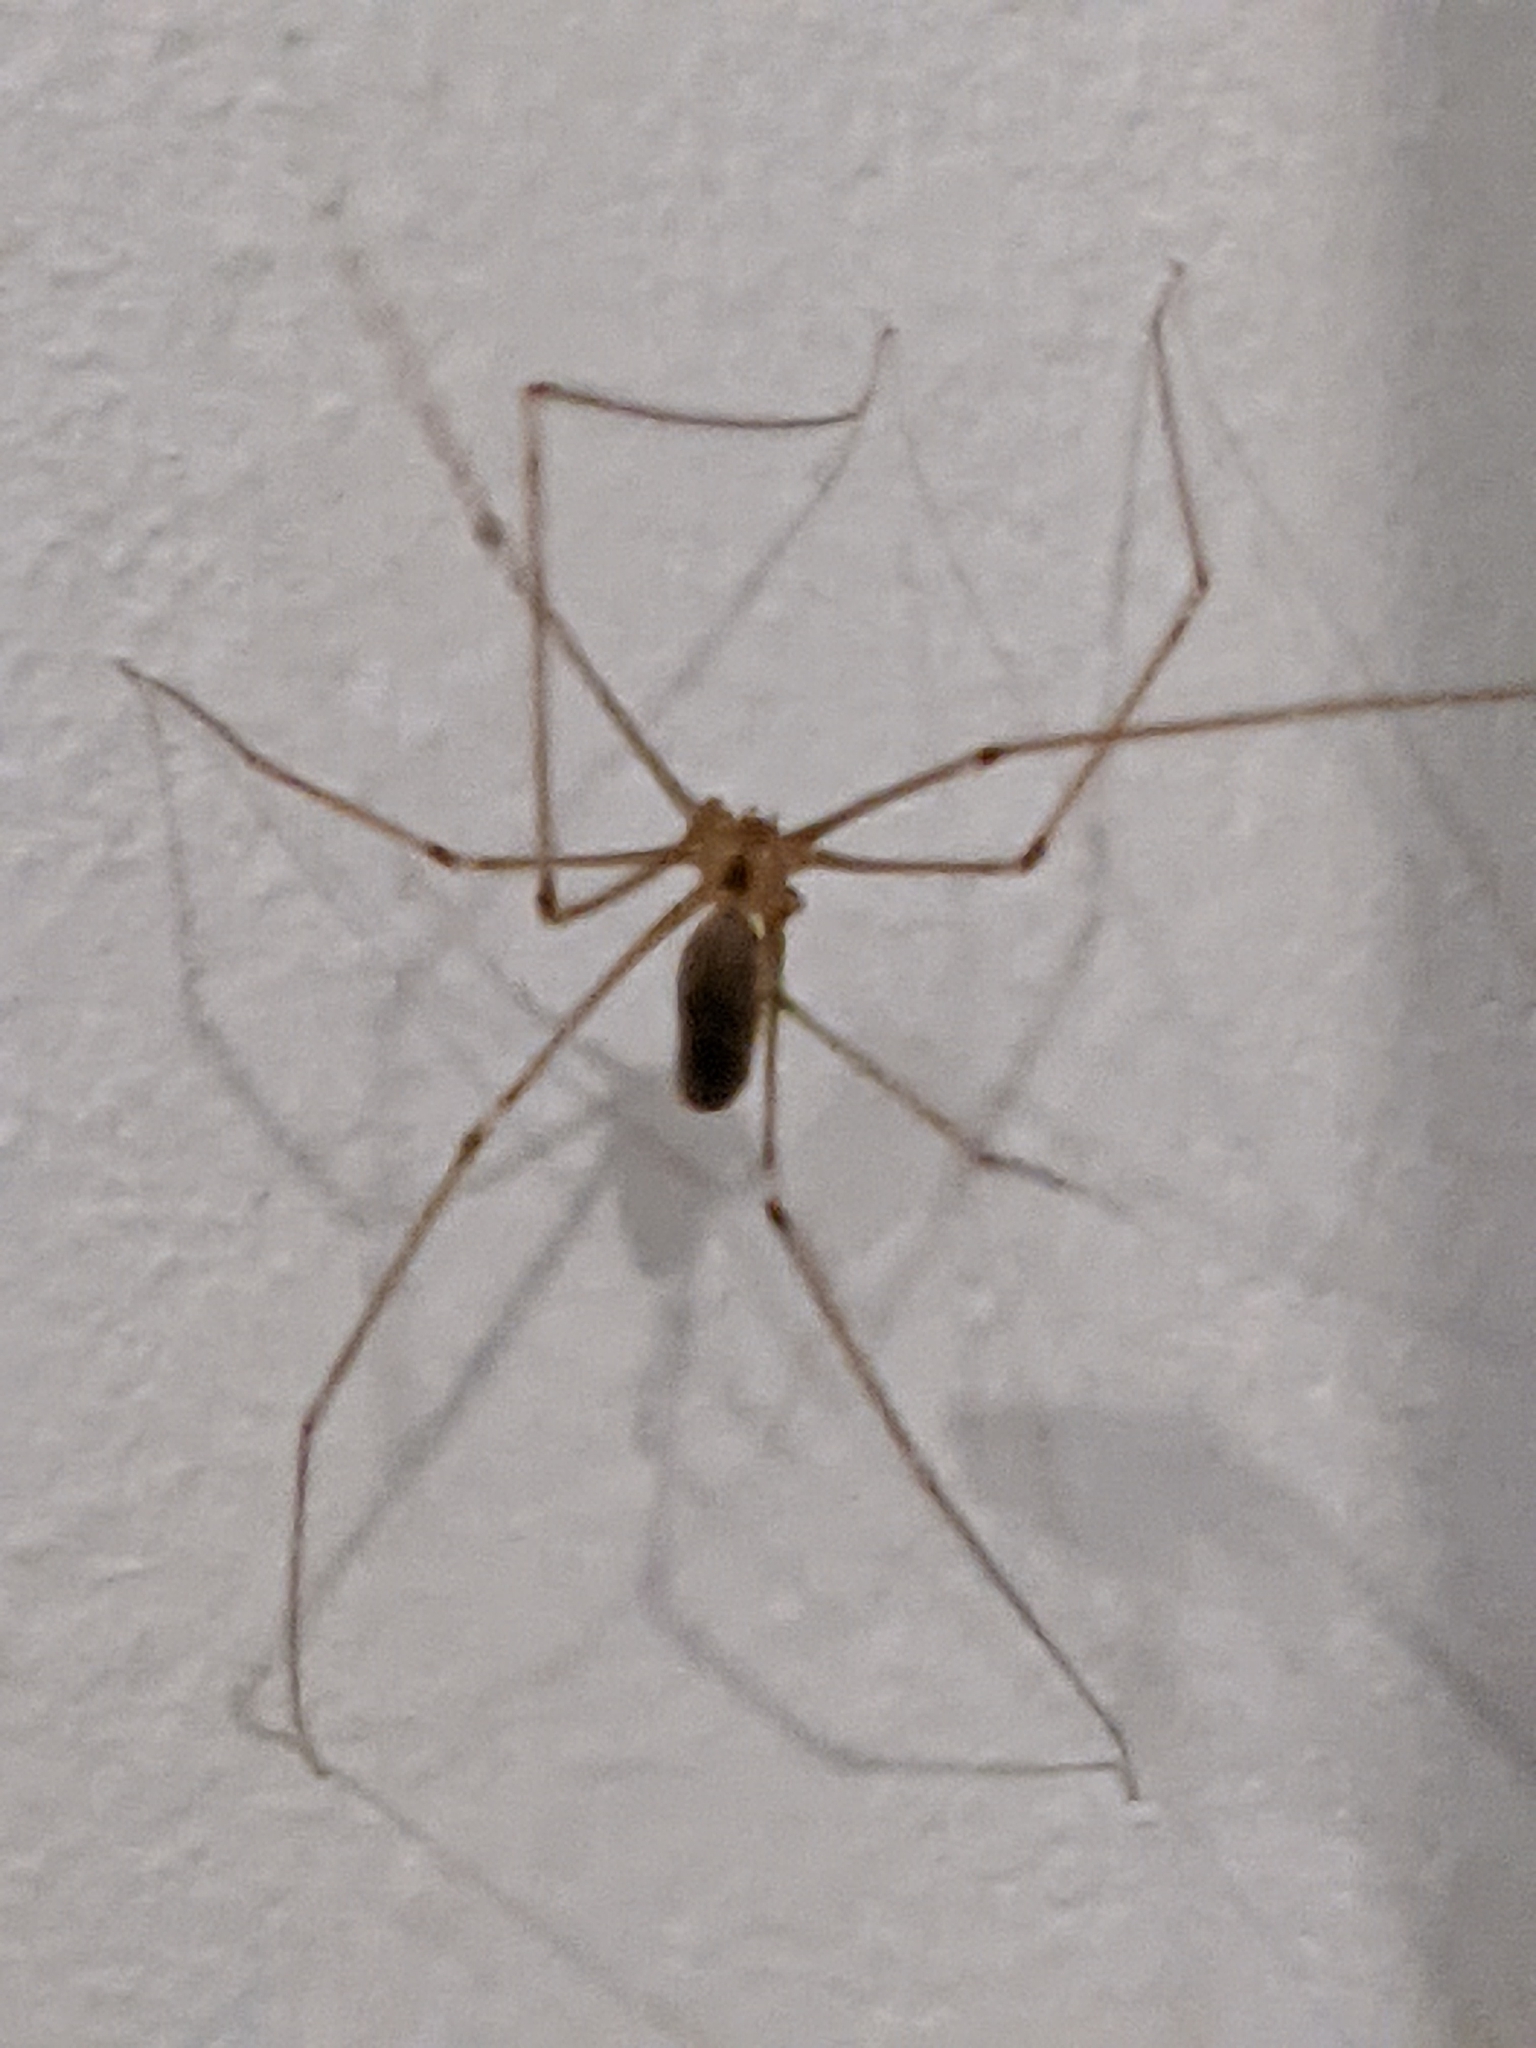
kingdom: Animalia
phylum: Arthropoda
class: Arachnida
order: Araneae
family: Pholcidae
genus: Pholcus
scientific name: Pholcus phalangioides
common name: Longbodied cellar spider
